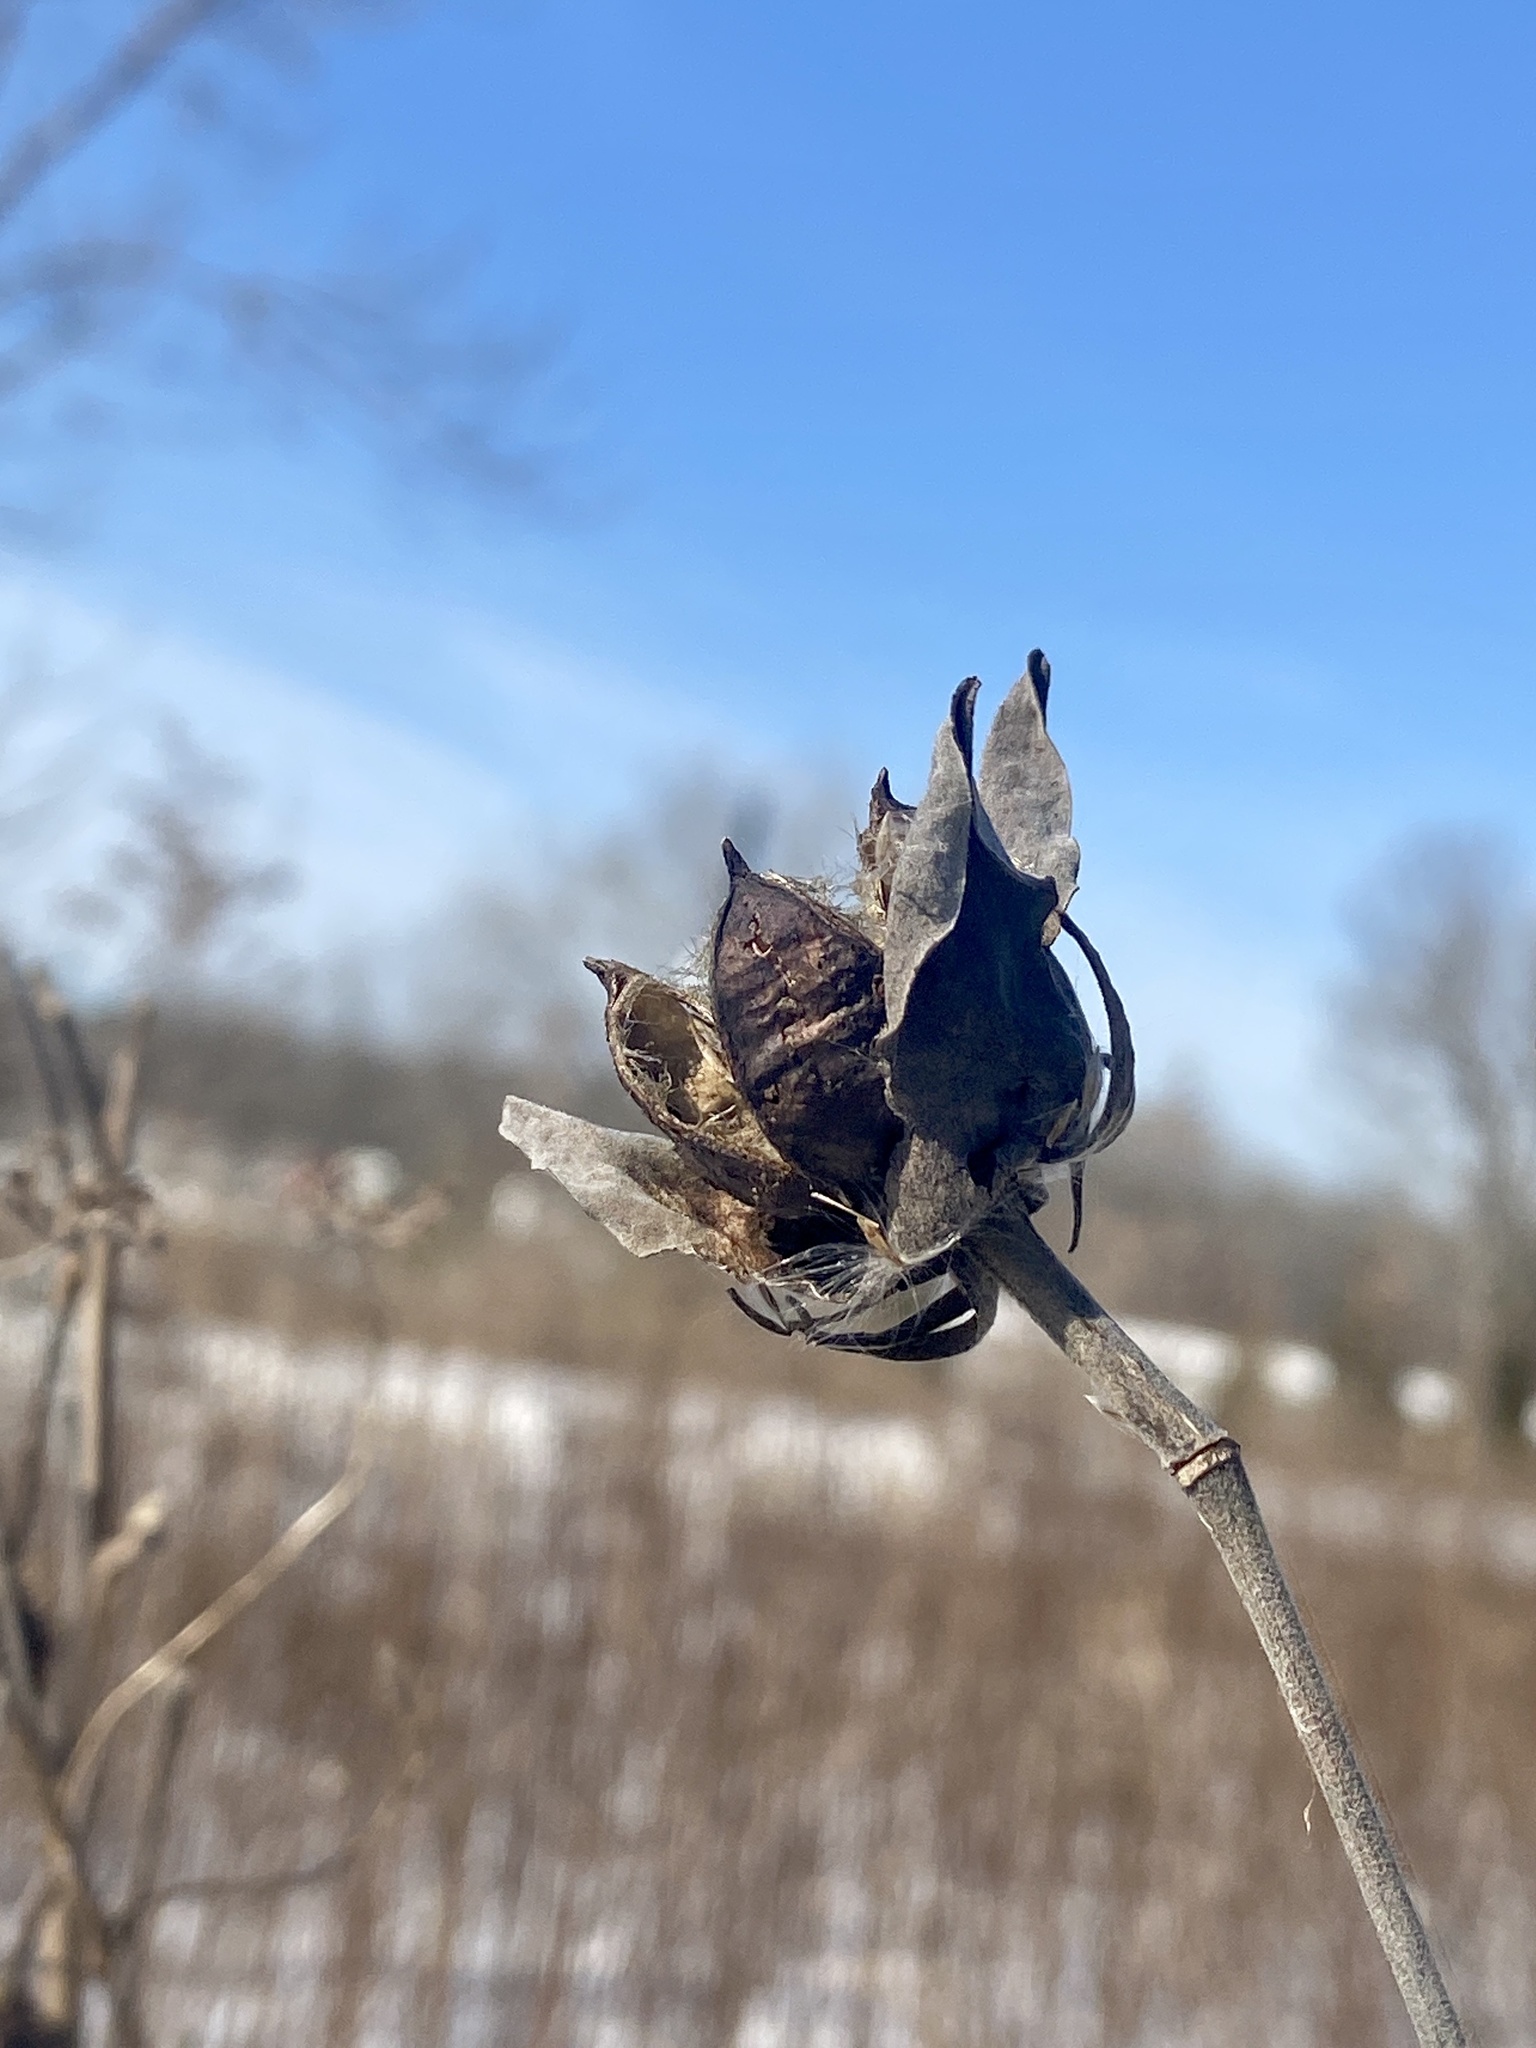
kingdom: Plantae
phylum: Tracheophyta
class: Magnoliopsida
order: Malvales
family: Malvaceae
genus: Hibiscus
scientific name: Hibiscus moscheutos
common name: Common rose-mallow
